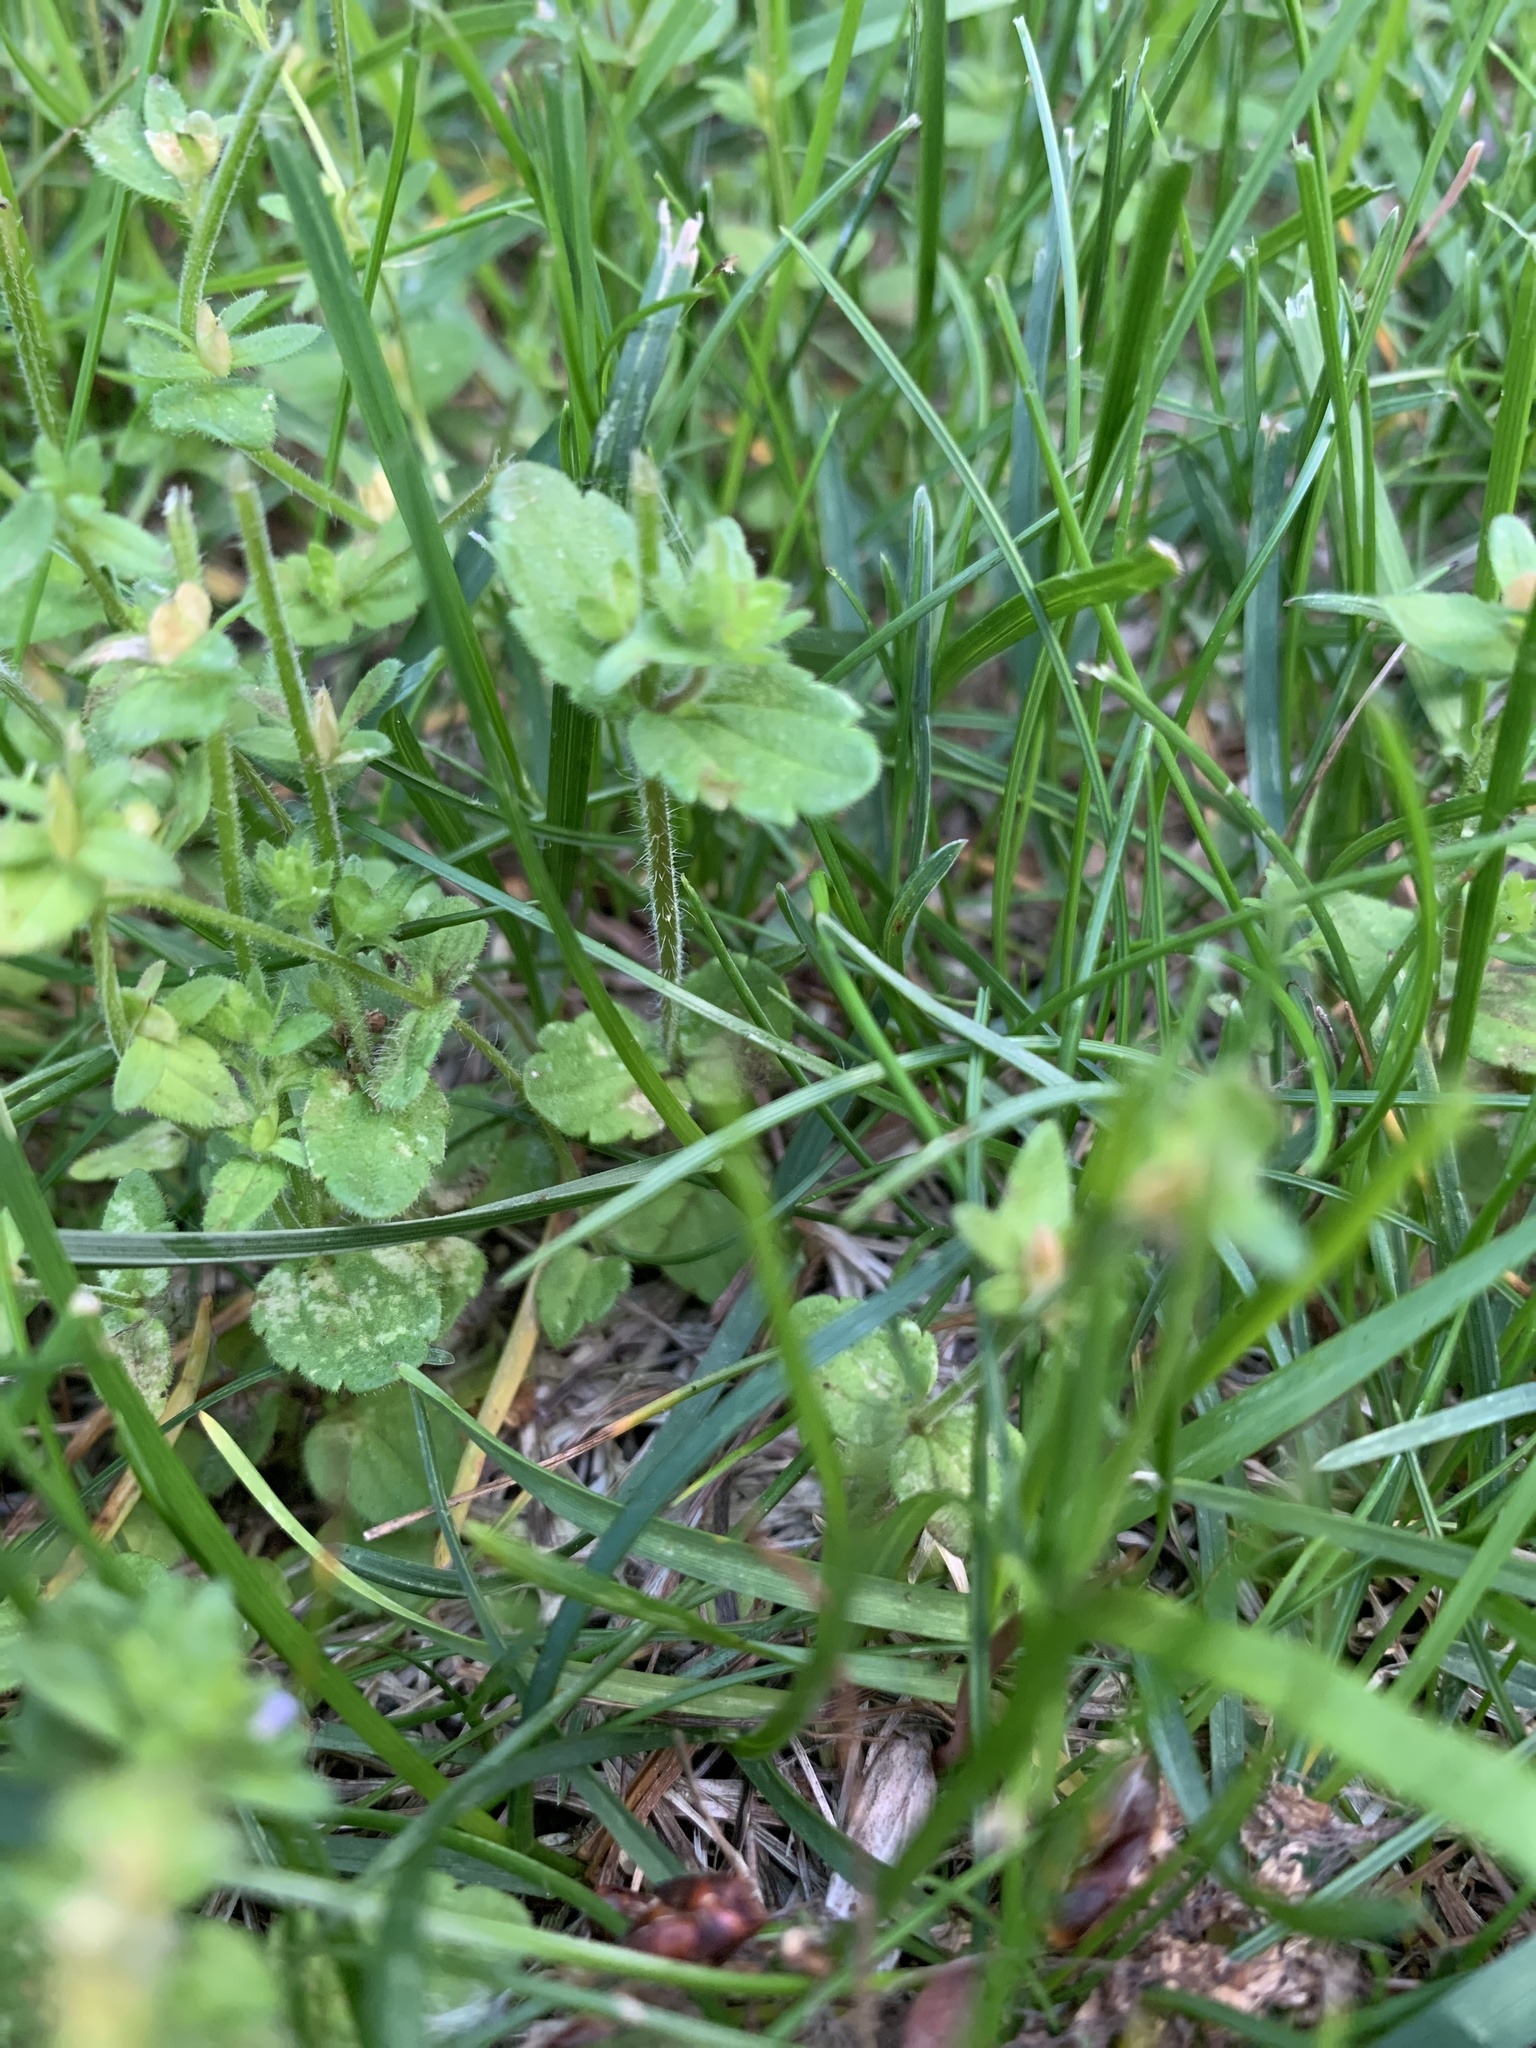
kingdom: Plantae
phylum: Tracheophyta
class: Magnoliopsida
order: Lamiales
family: Plantaginaceae
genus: Veronica
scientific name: Veronica arvensis
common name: Corn speedwell
